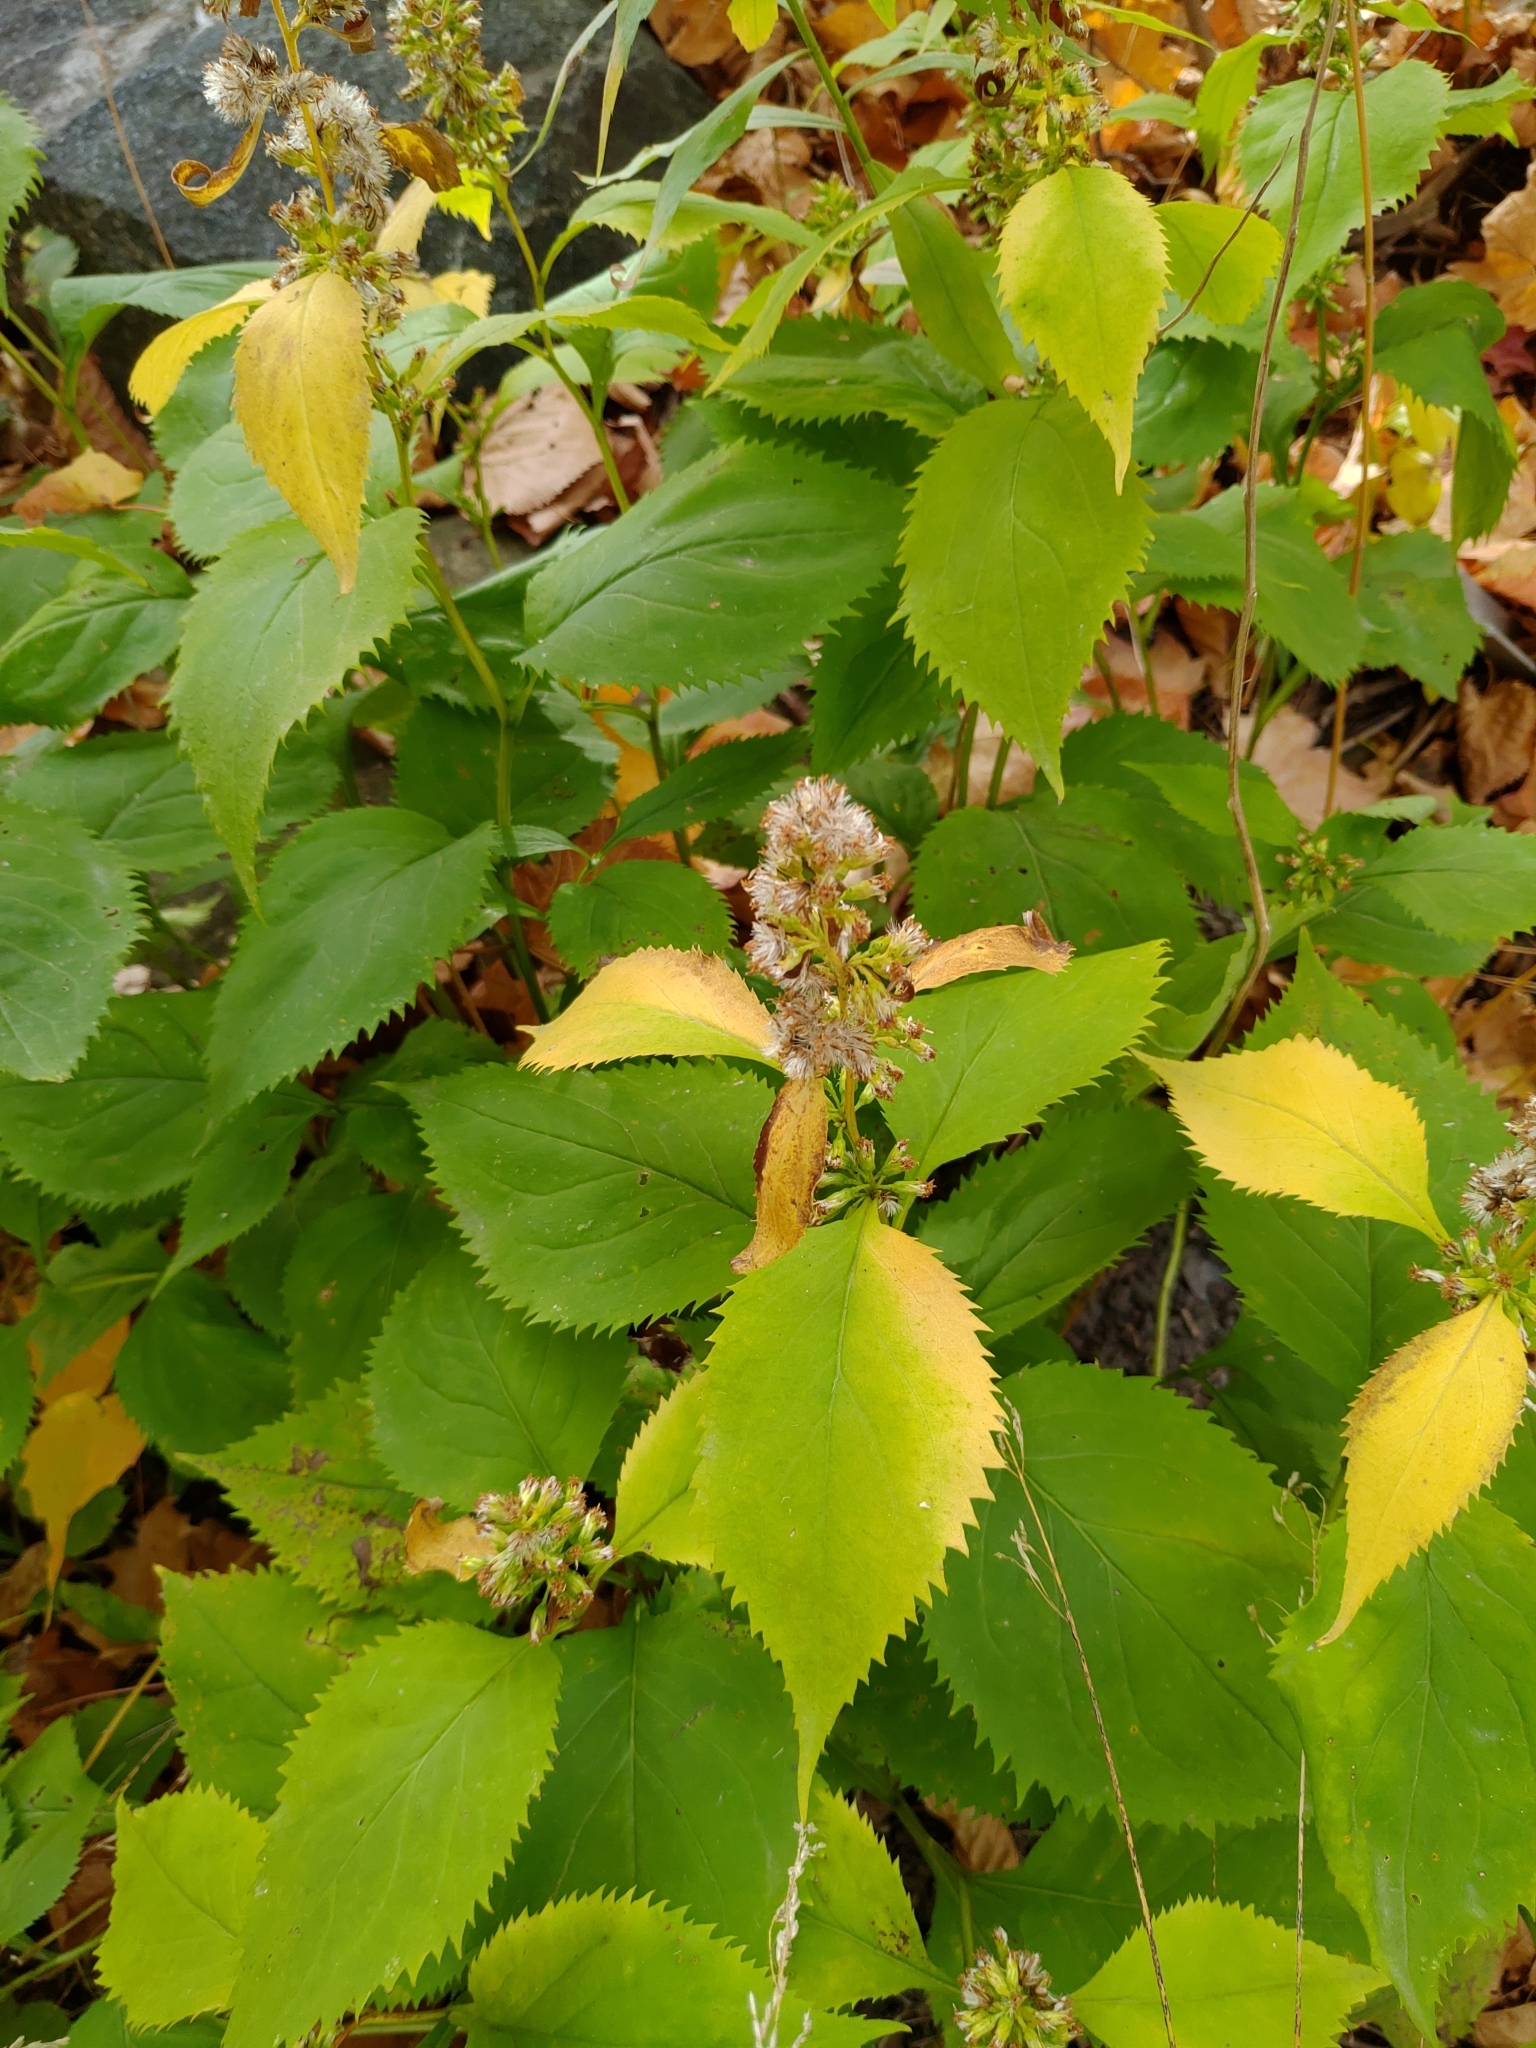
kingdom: Plantae
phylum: Tracheophyta
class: Magnoliopsida
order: Asterales
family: Asteraceae
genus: Solidago
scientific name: Solidago flexicaulis
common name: Zig-zag goldenrod
